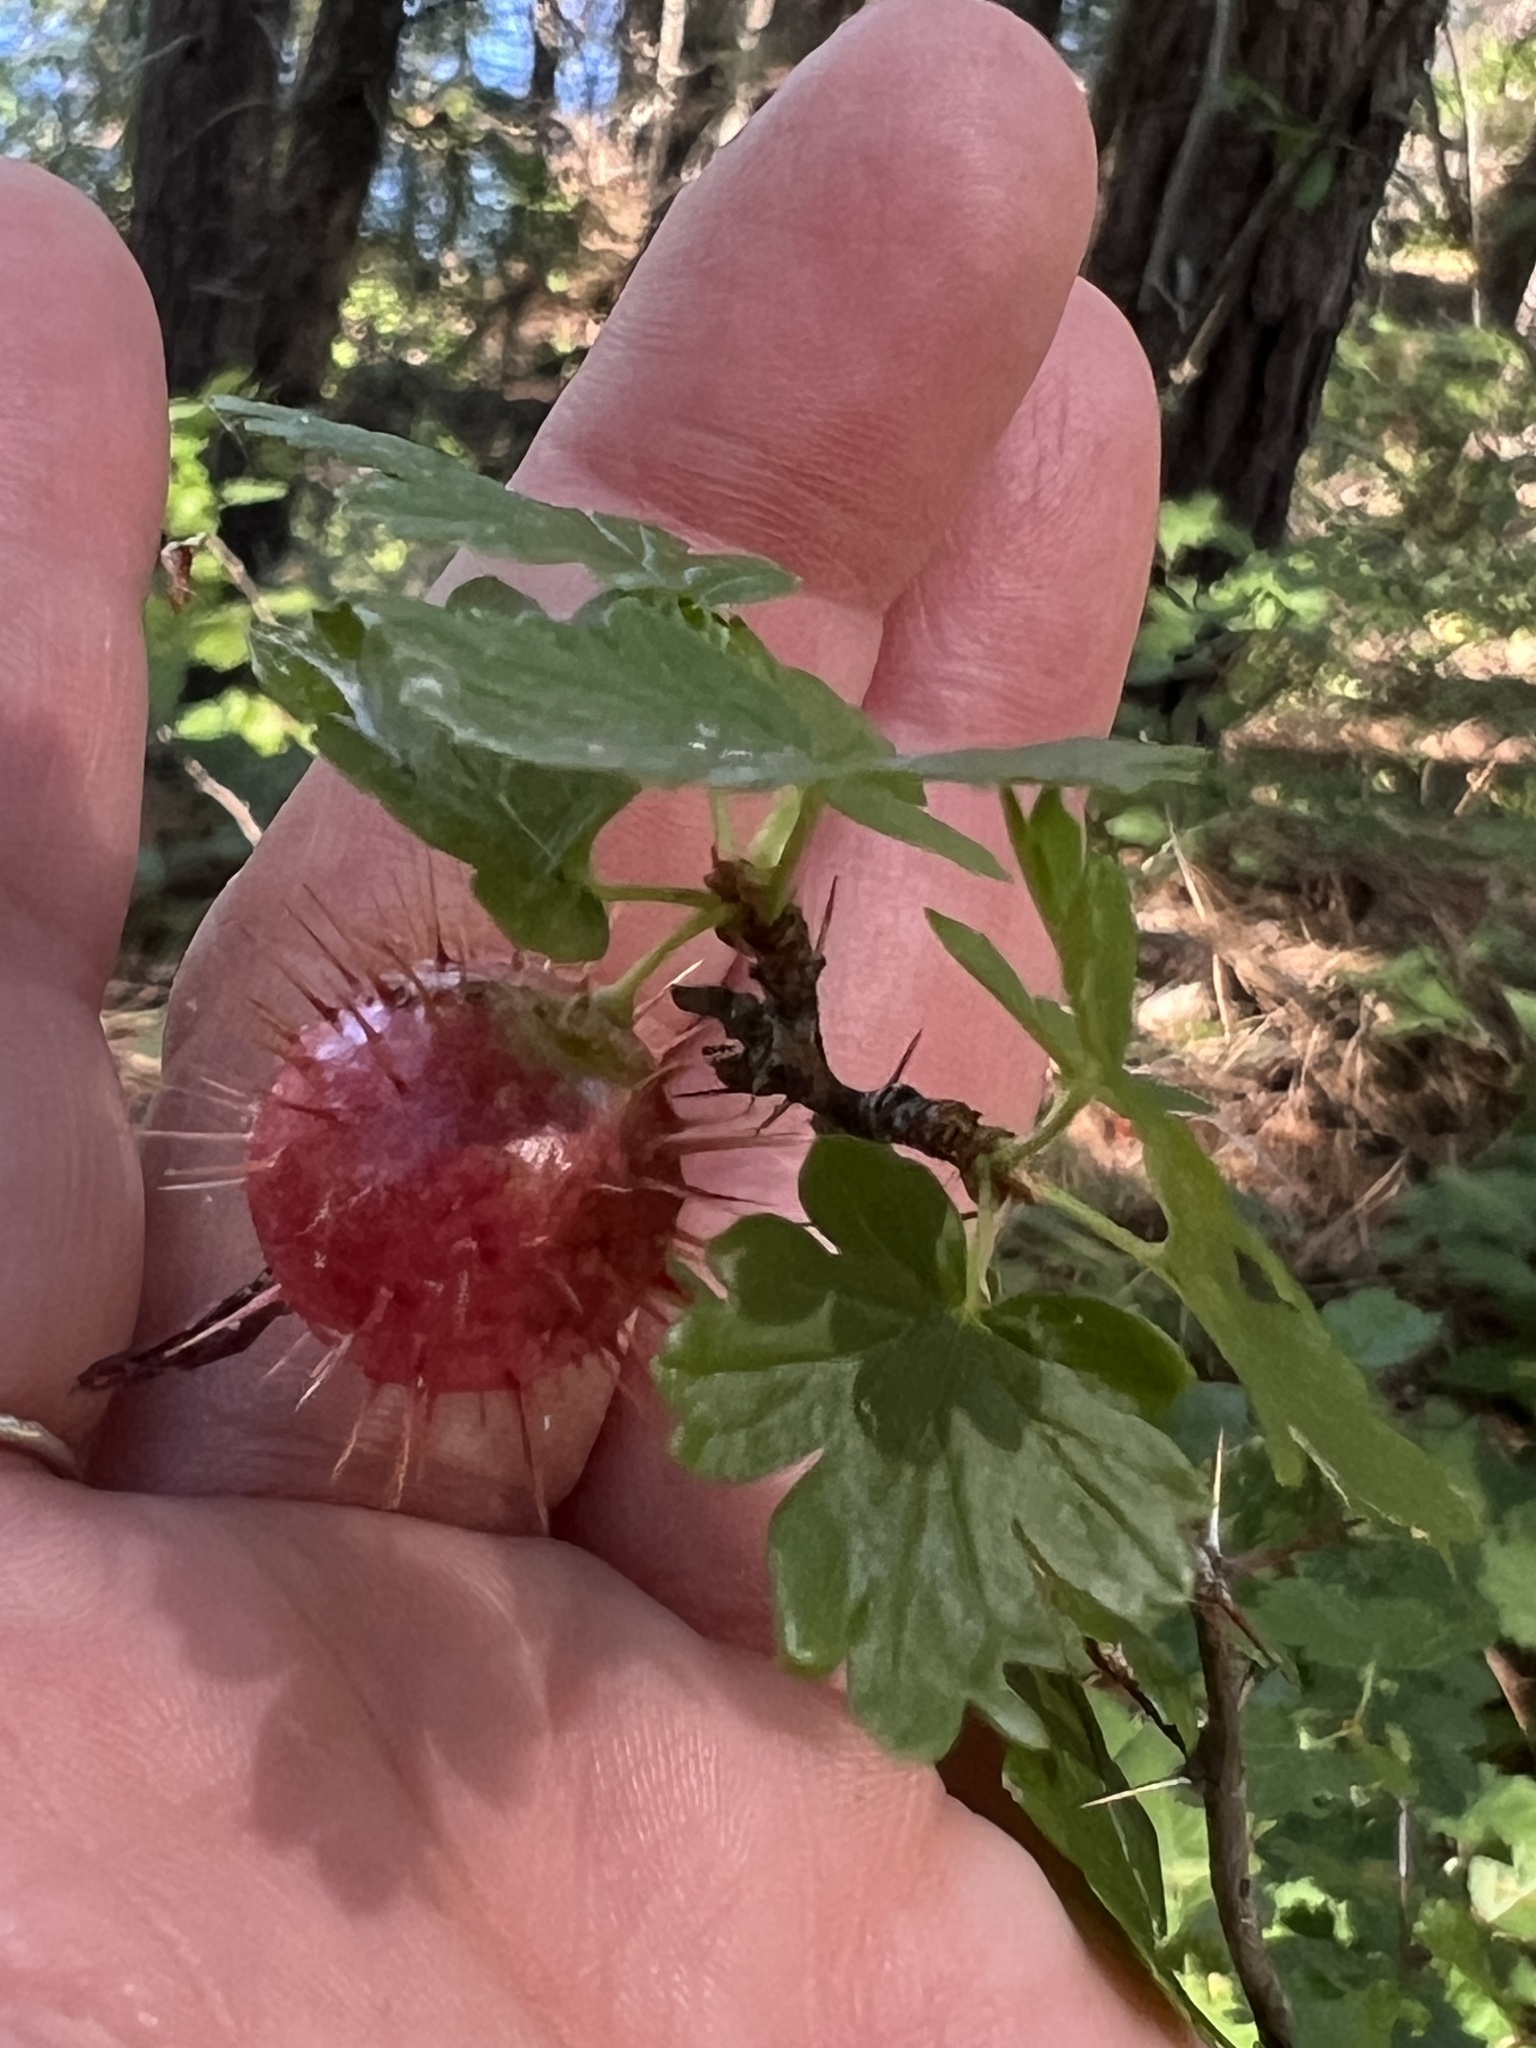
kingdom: Plantae
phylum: Tracheophyta
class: Magnoliopsida
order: Saxifragales
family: Grossulariaceae
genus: Ribes
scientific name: Ribes roezlii
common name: Sierra gooseberry
